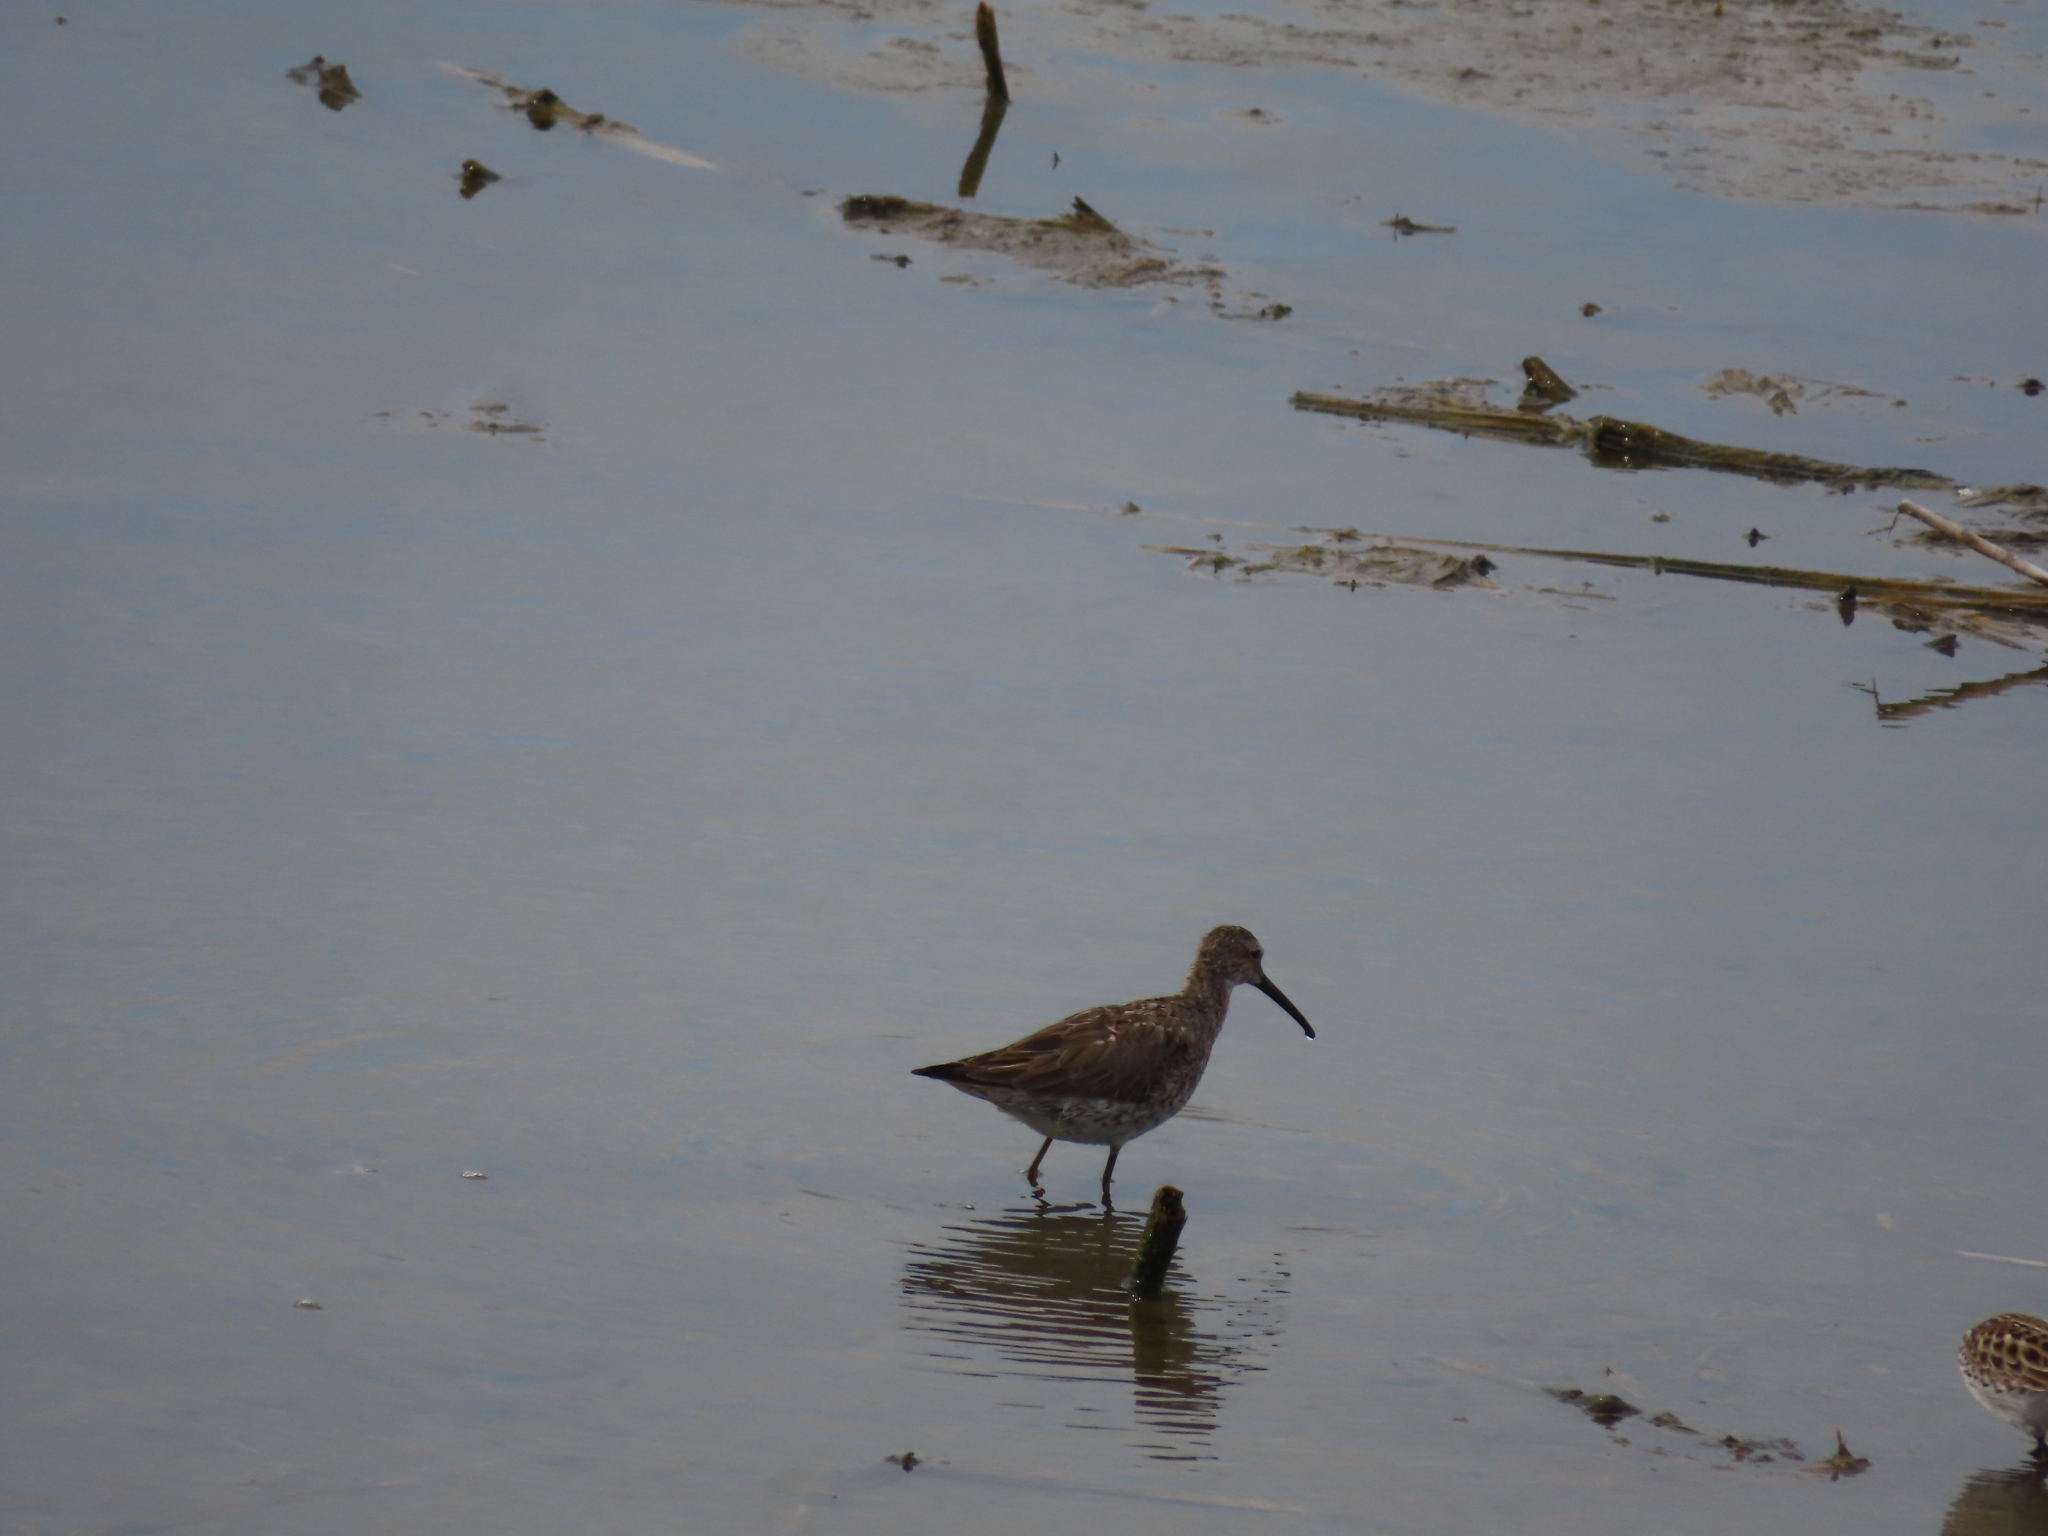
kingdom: Animalia
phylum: Chordata
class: Aves
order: Charadriiformes
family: Scolopacidae
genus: Calidris
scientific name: Calidris himantopus
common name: Stilt sandpiper
